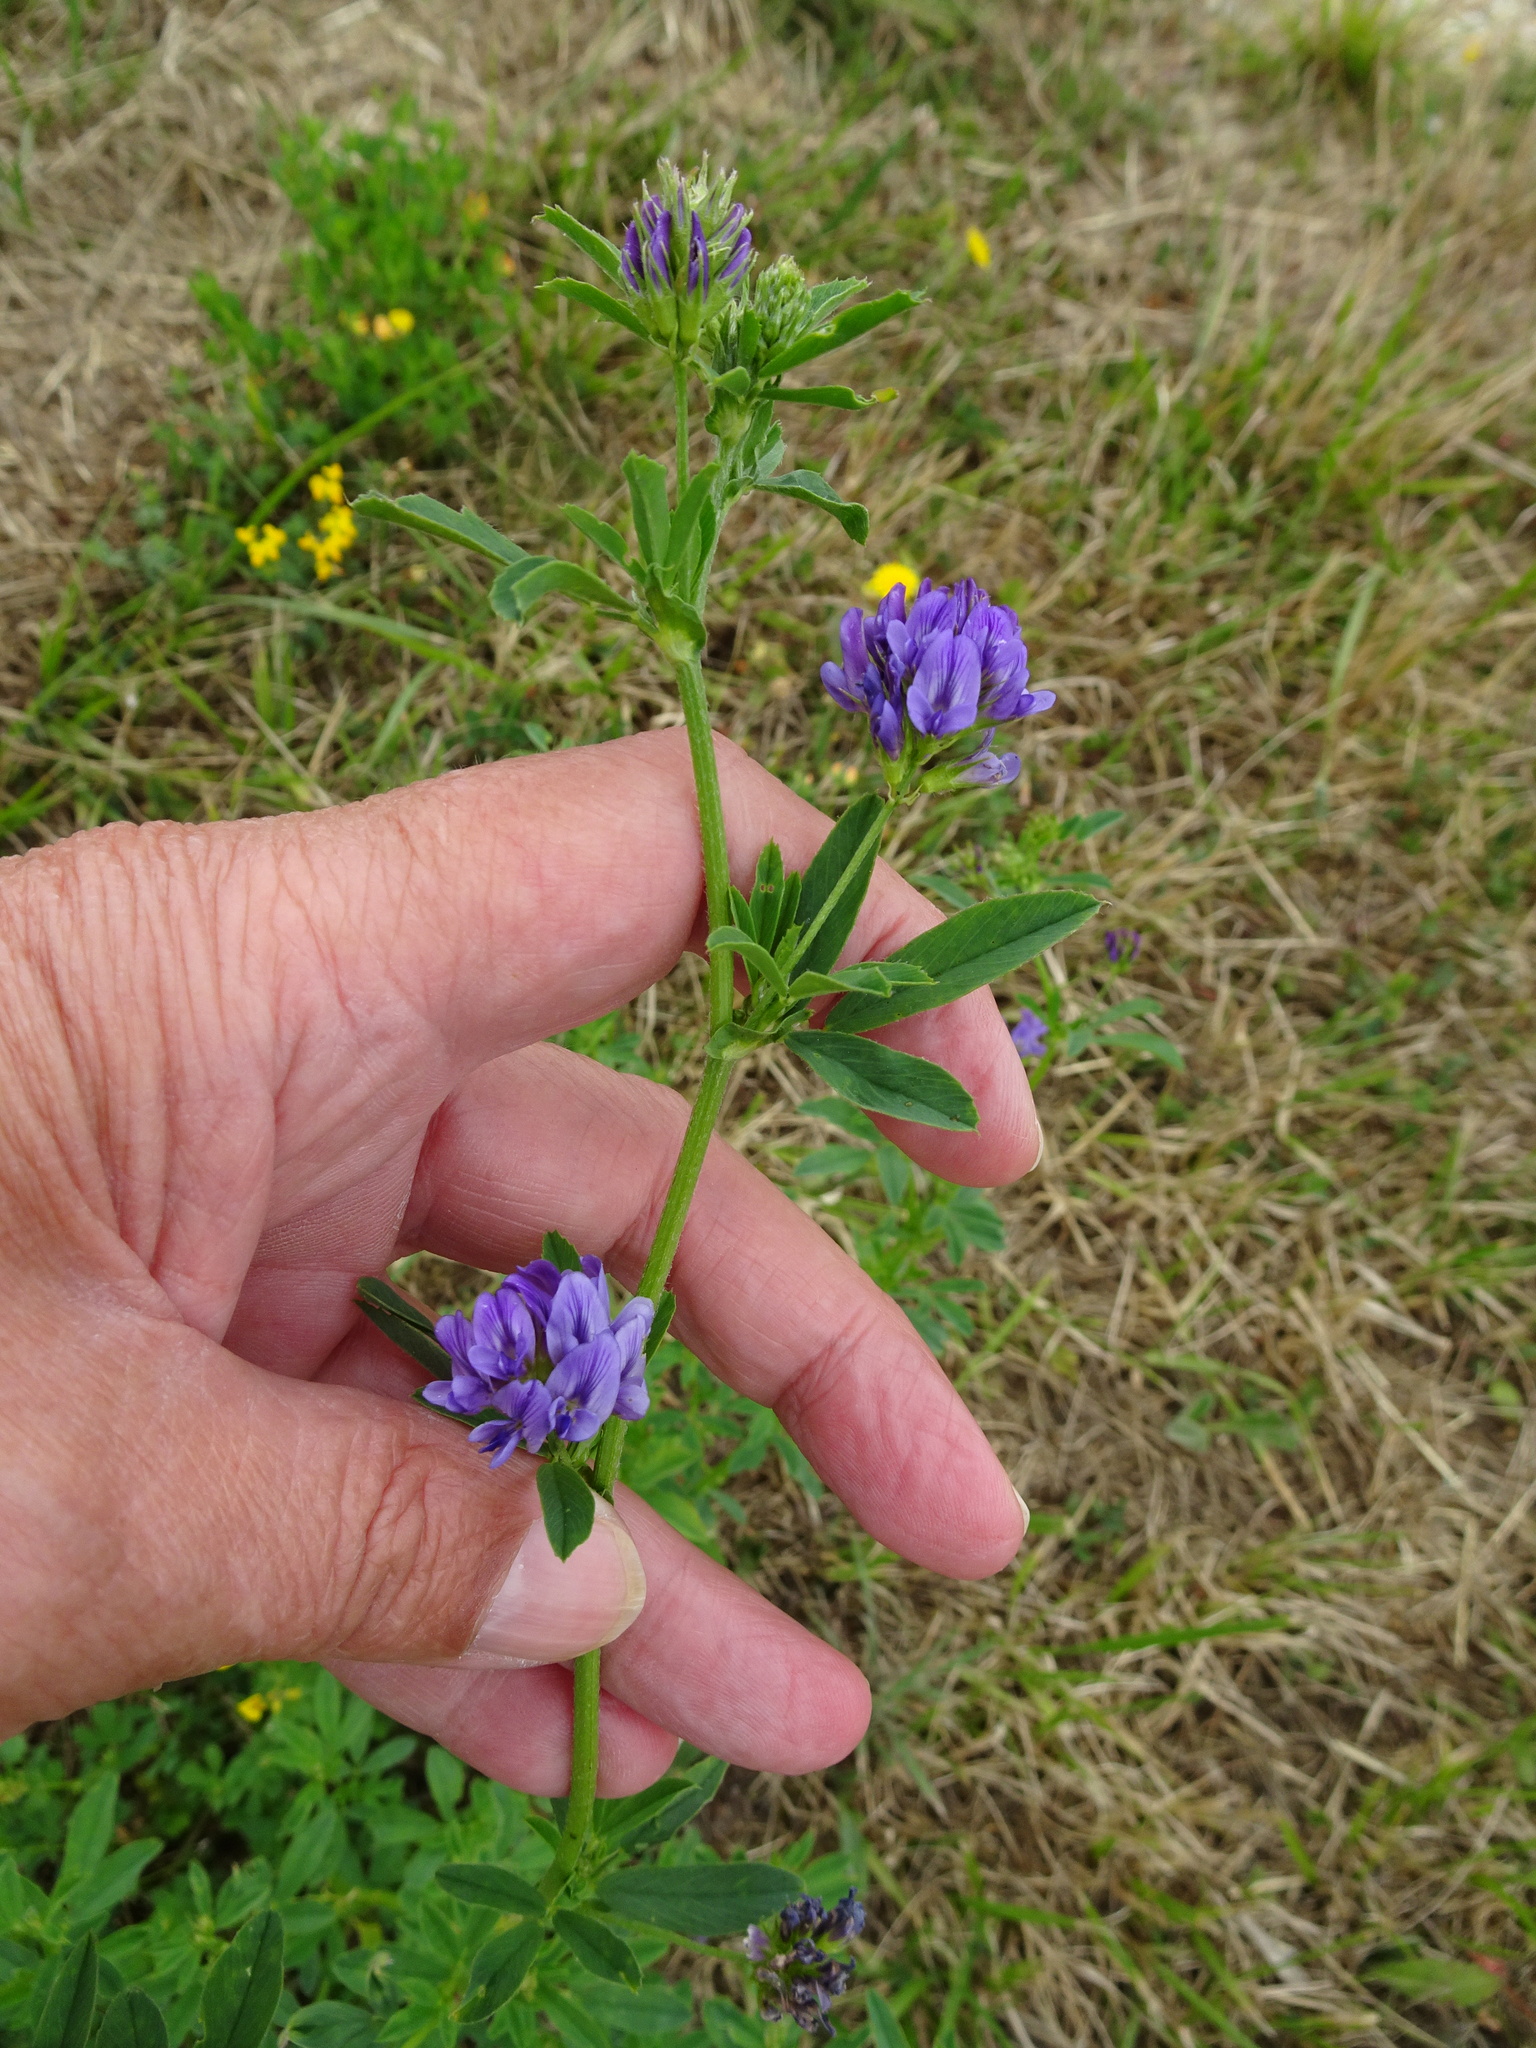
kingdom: Plantae
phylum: Tracheophyta
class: Magnoliopsida
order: Fabales
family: Fabaceae
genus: Medicago
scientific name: Medicago sativa
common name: Alfalfa
